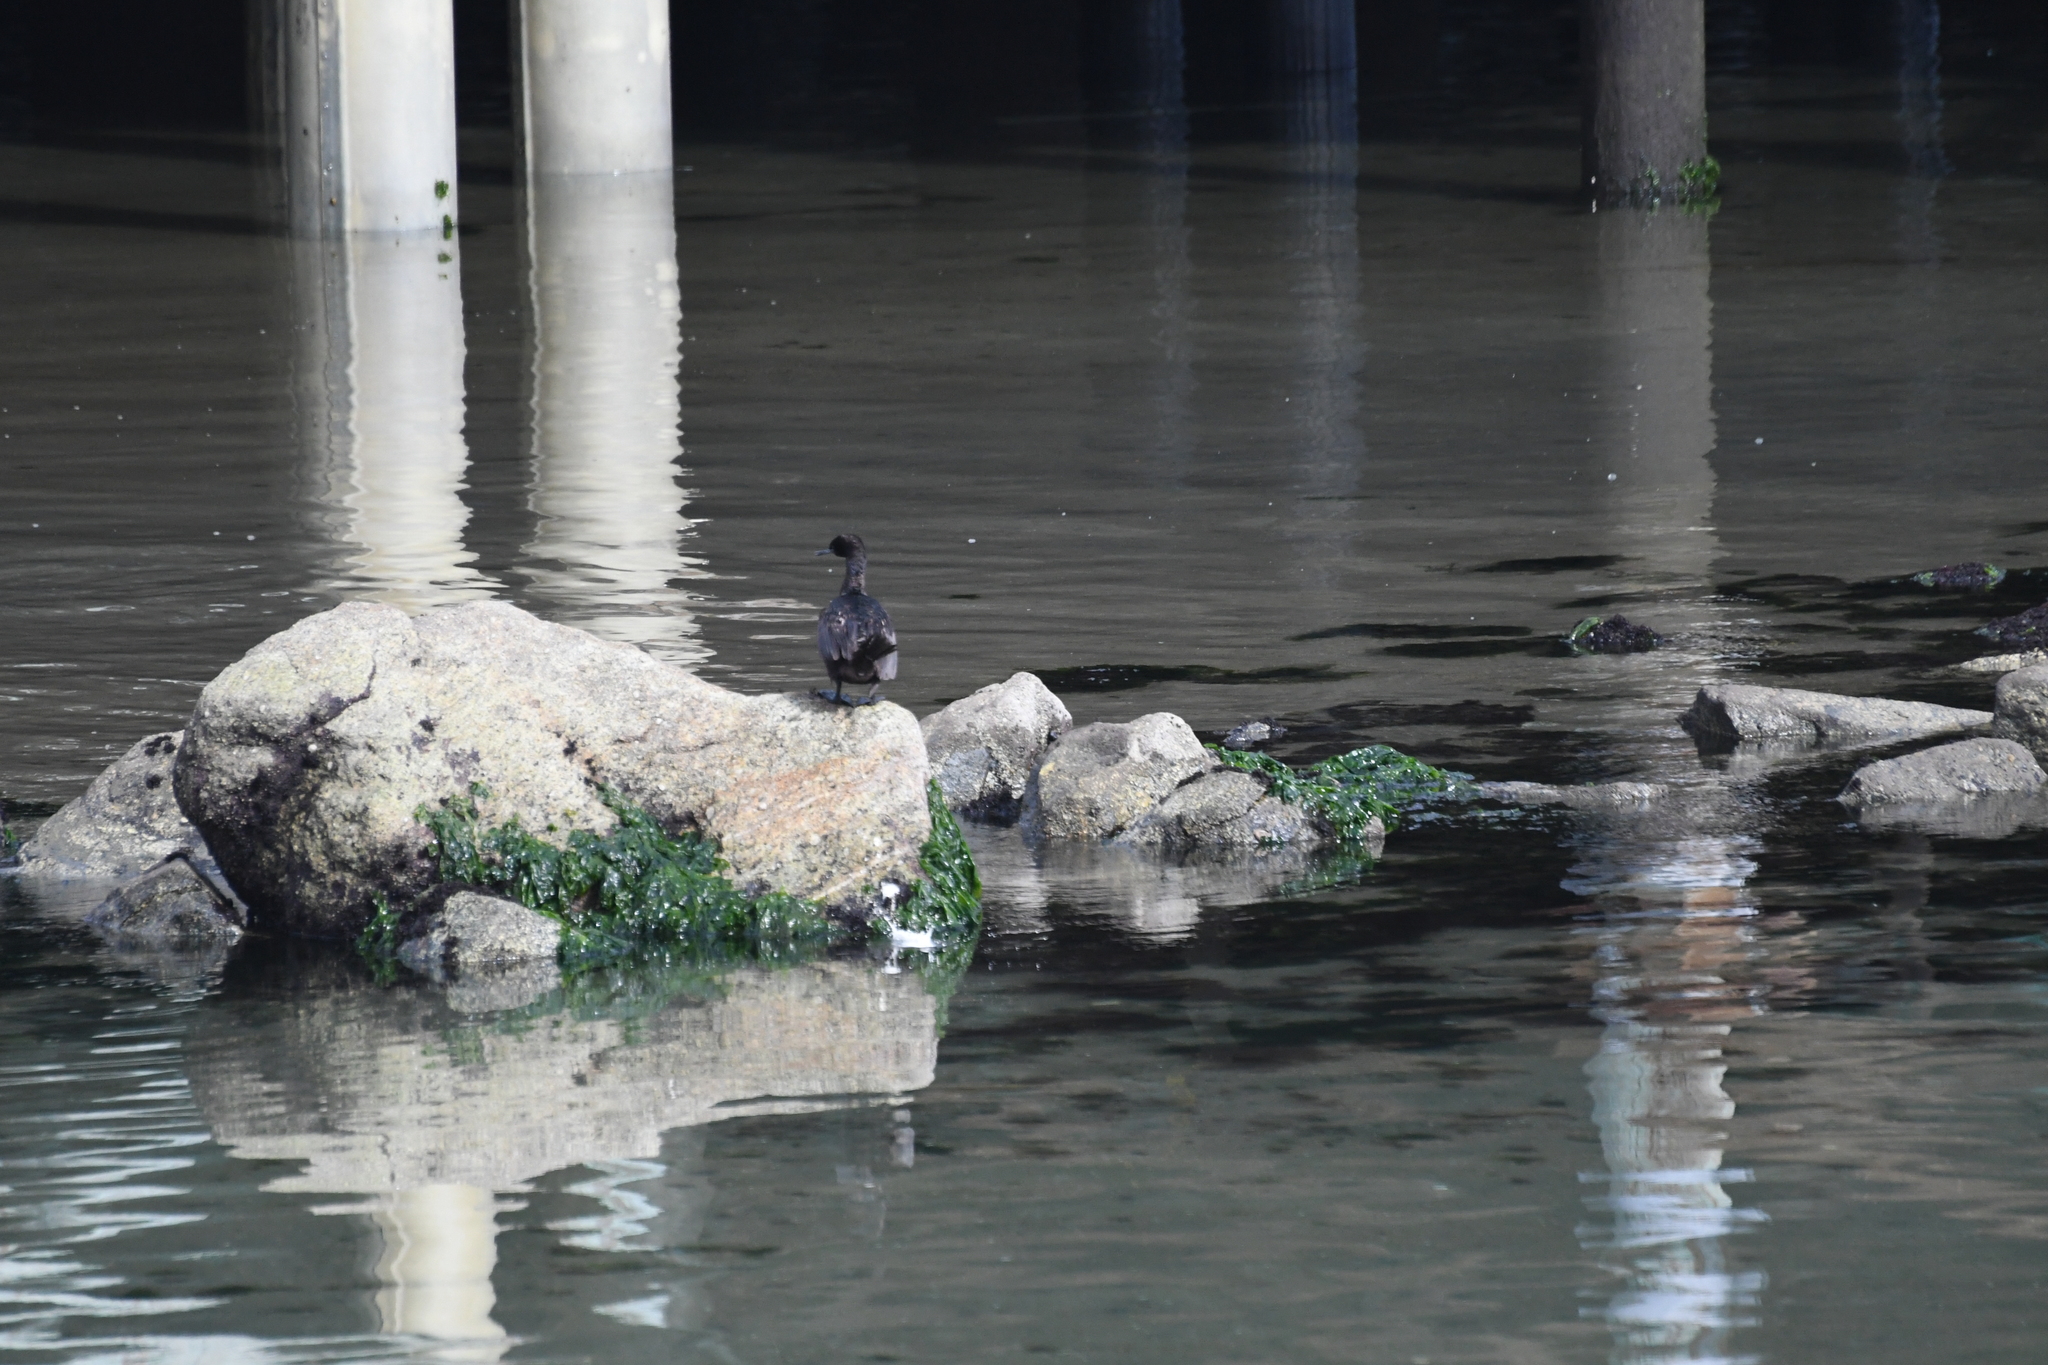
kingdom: Animalia
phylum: Chordata
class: Aves
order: Suliformes
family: Phalacrocoracidae
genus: Phalacrocorax
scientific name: Phalacrocorax pelagicus
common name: Pelagic cormorant
